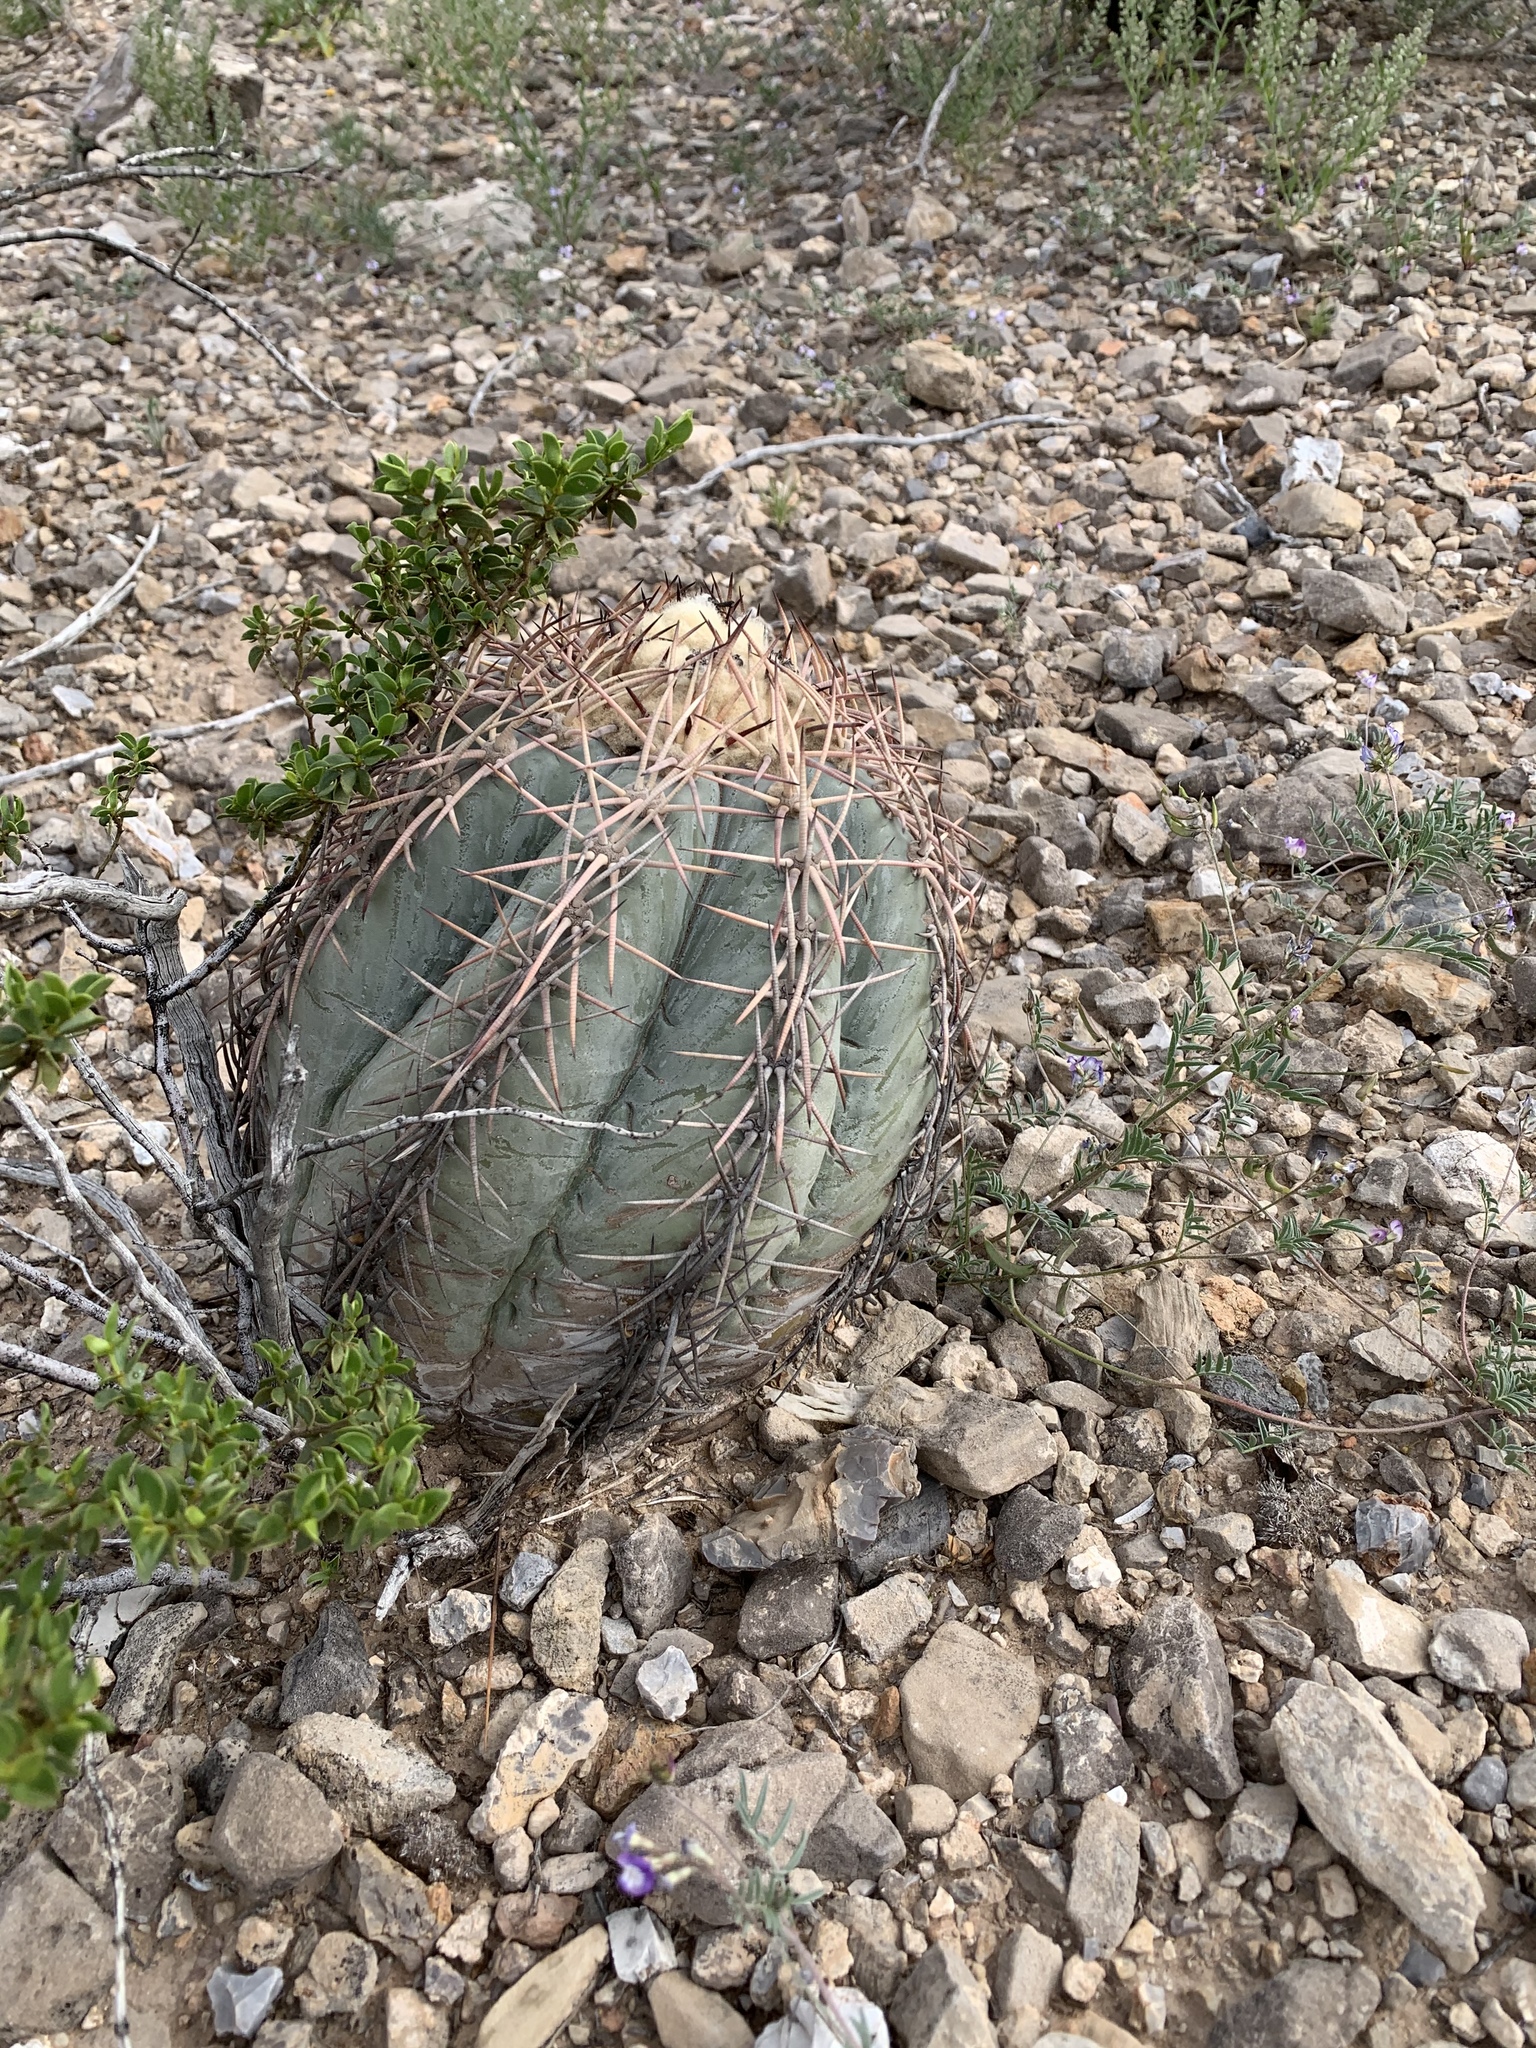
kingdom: Plantae
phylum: Tracheophyta
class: Magnoliopsida
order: Caryophyllales
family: Cactaceae
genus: Echinocactus
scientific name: Echinocactus horizonthalonius
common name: Devilshead
